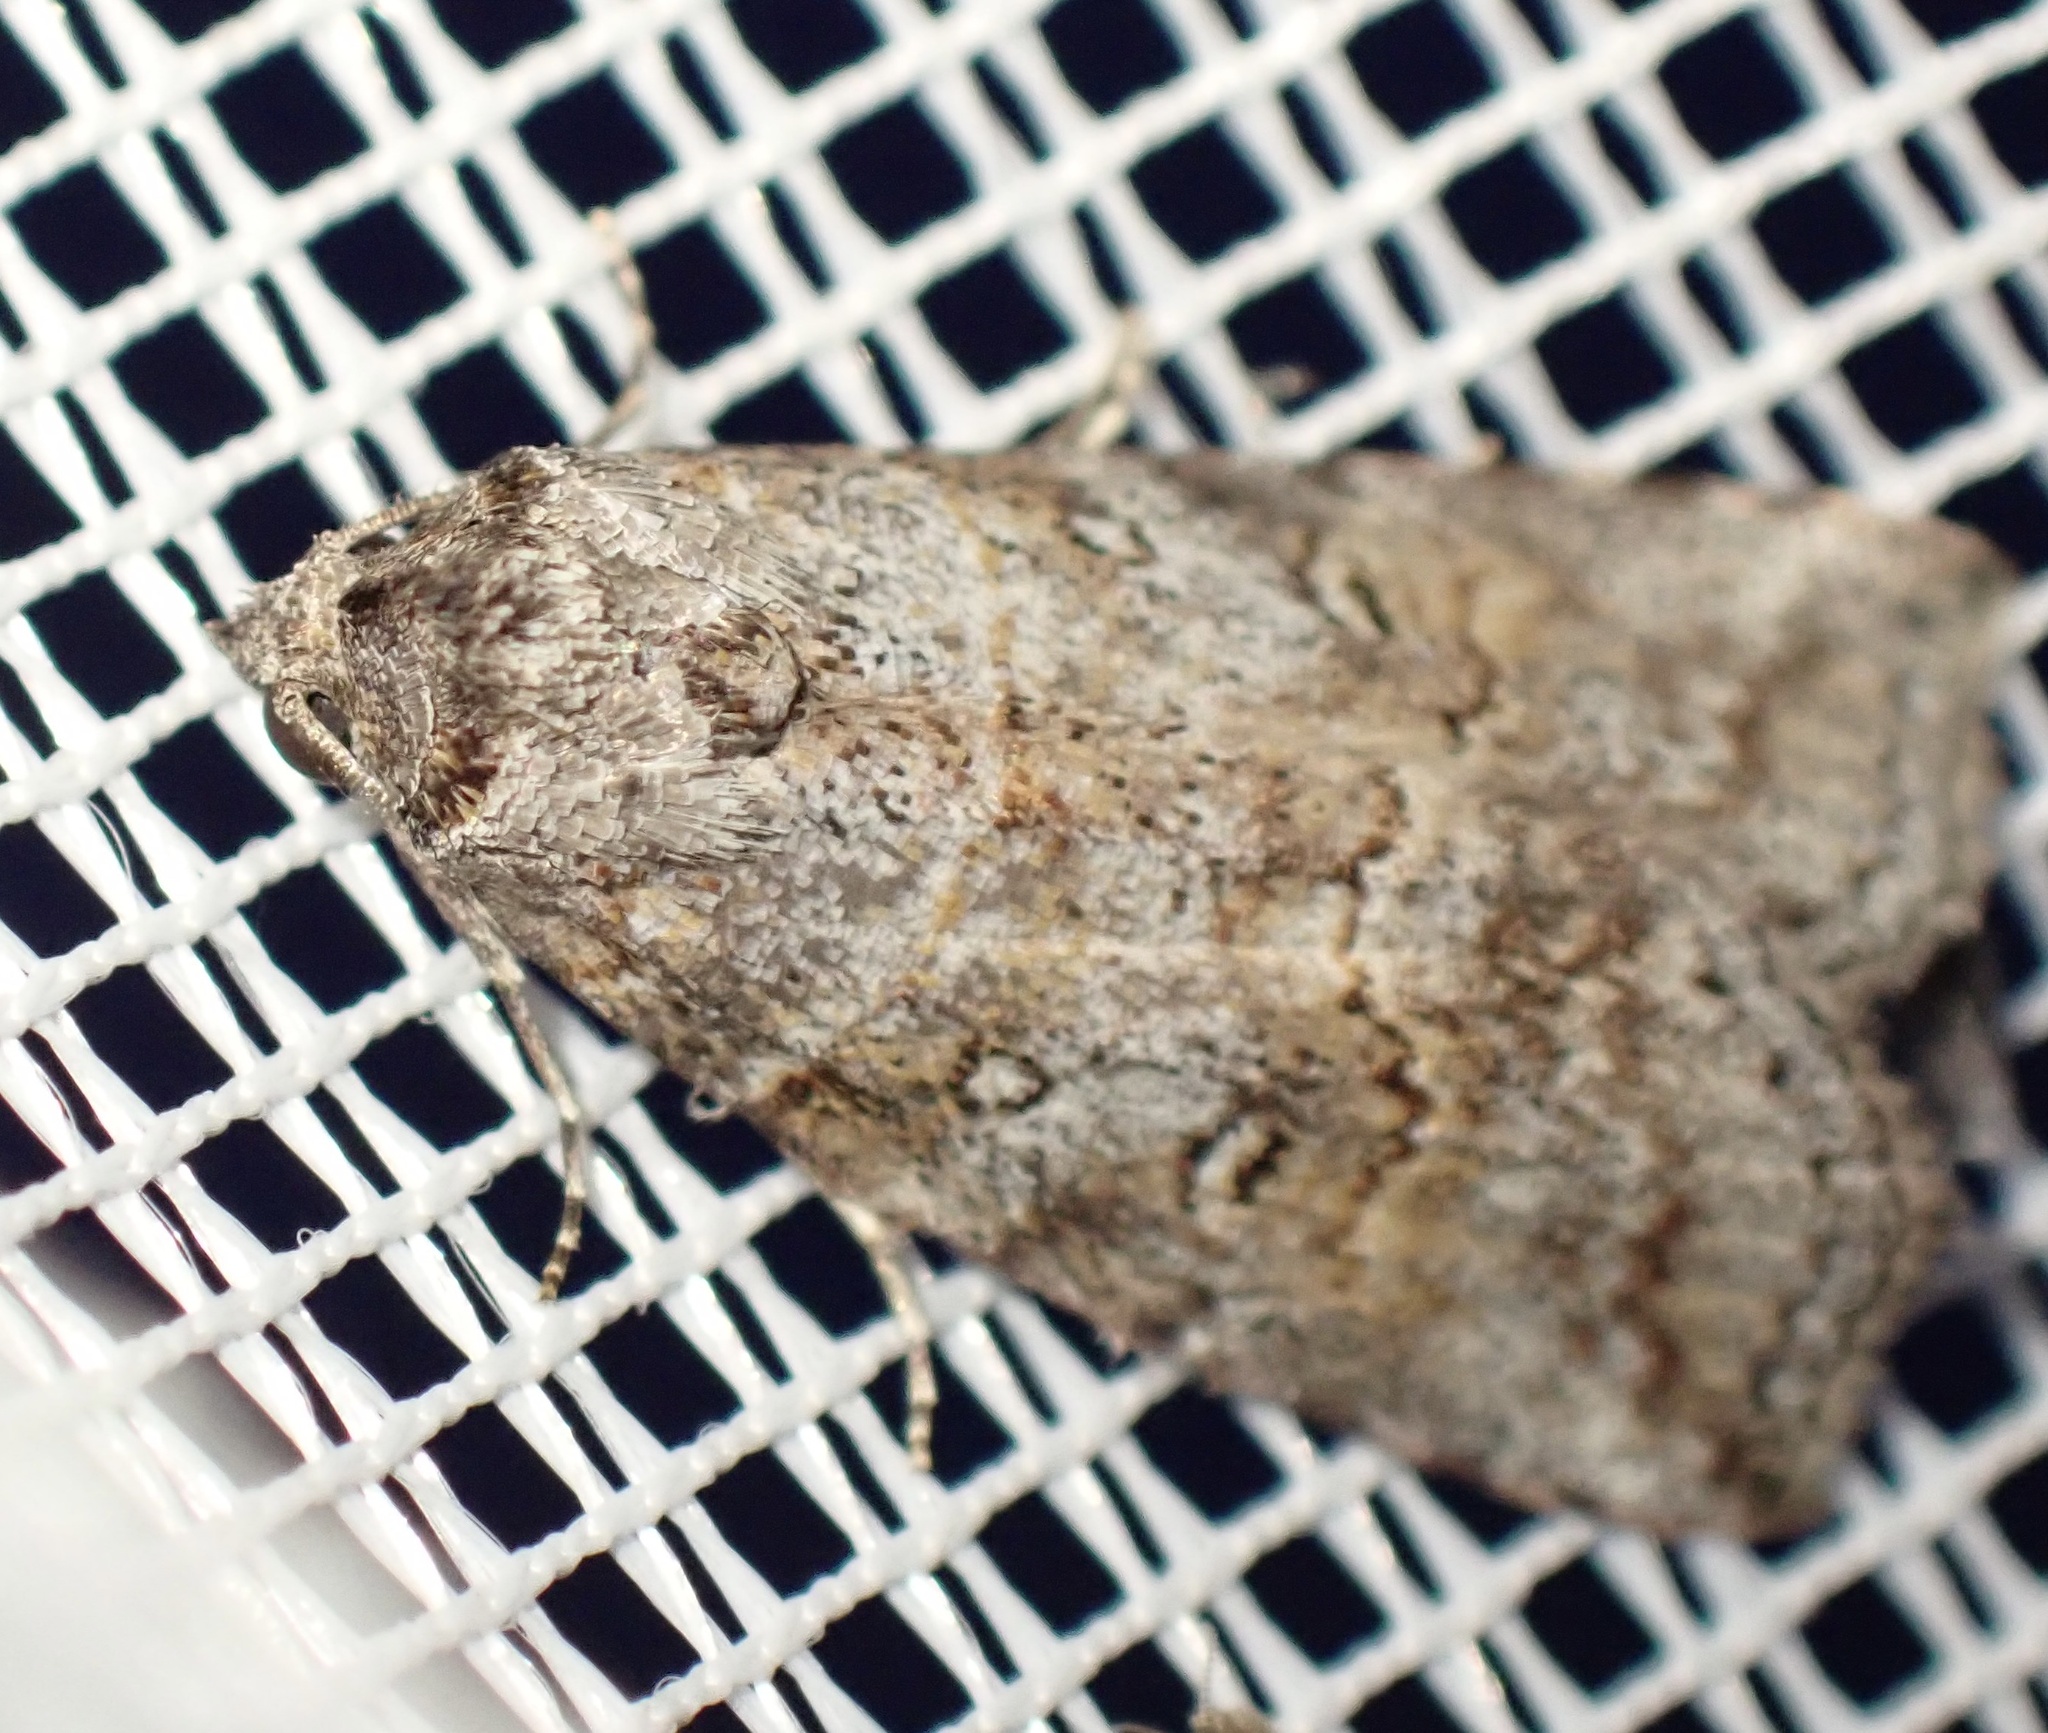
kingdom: Animalia
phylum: Arthropoda
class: Insecta
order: Lepidoptera
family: Nolidae
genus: Calathusa
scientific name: Calathusa hypotherma
